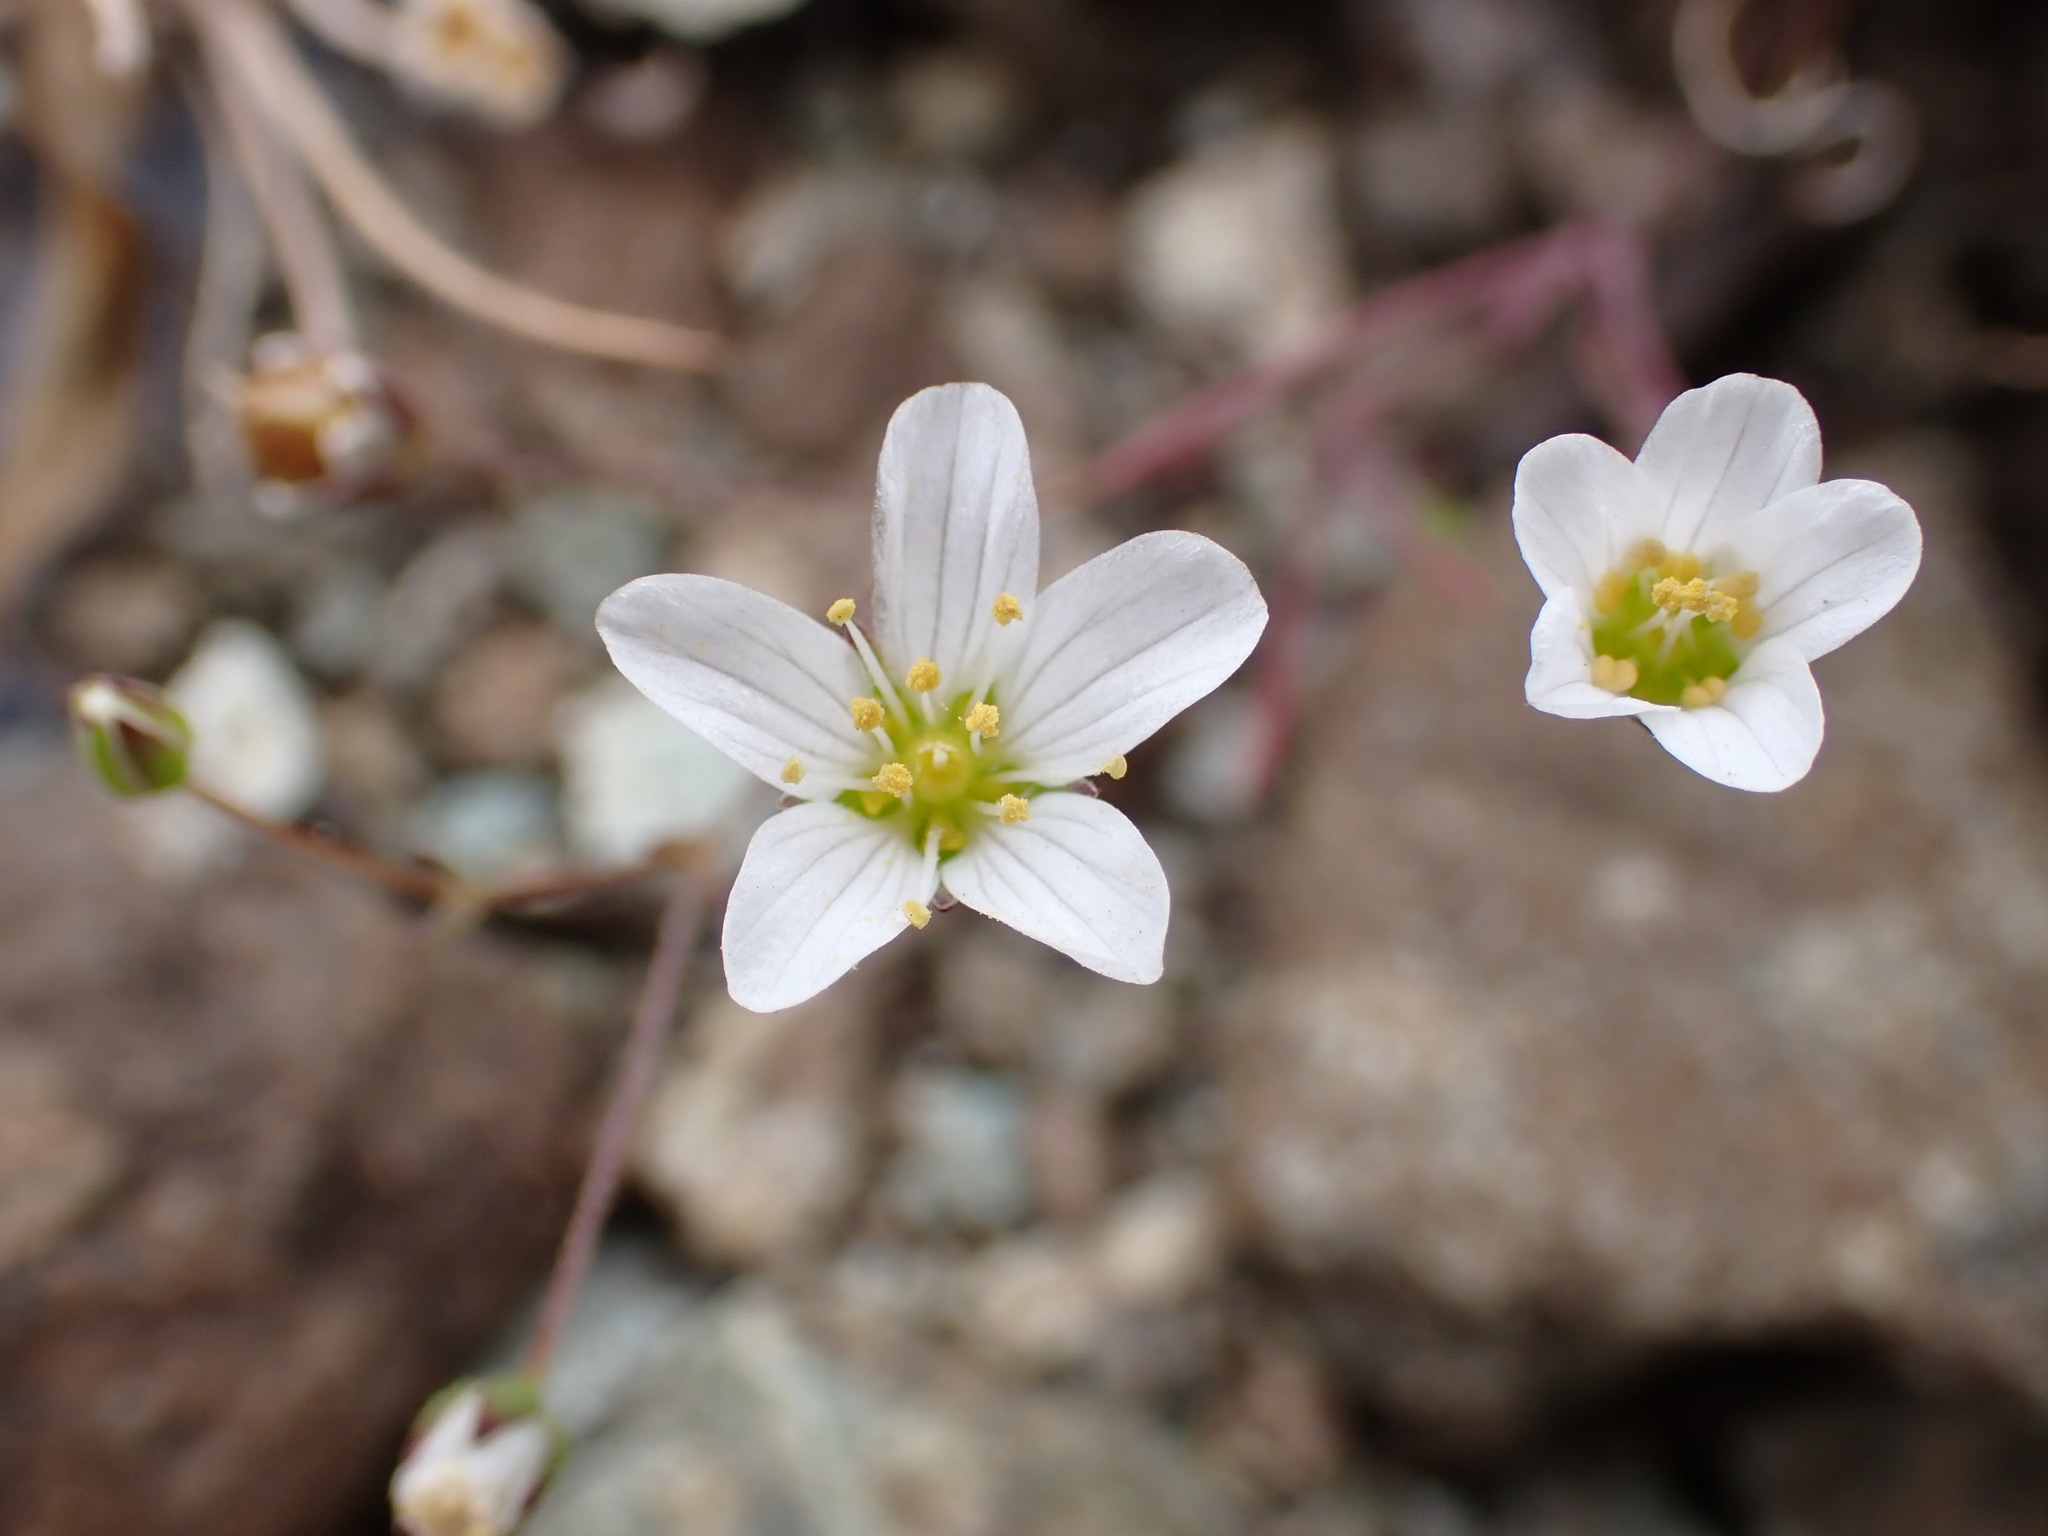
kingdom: Plantae
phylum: Tracheophyta
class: Magnoliopsida
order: Caryophyllales
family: Caryophyllaceae
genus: Sabulina
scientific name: Sabulina douglasii
